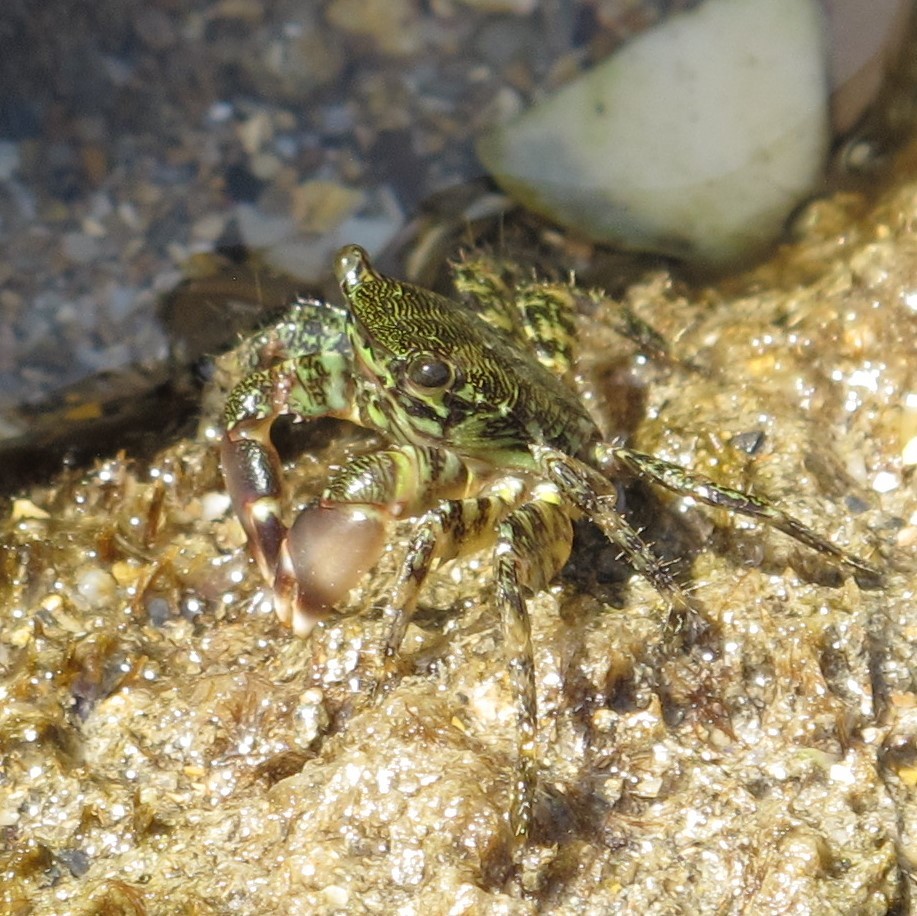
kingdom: Animalia
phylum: Arthropoda
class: Malacostraca
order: Decapoda
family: Grapsidae
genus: Pachygrapsus
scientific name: Pachygrapsus marmoratus
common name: Marbled rock crab
